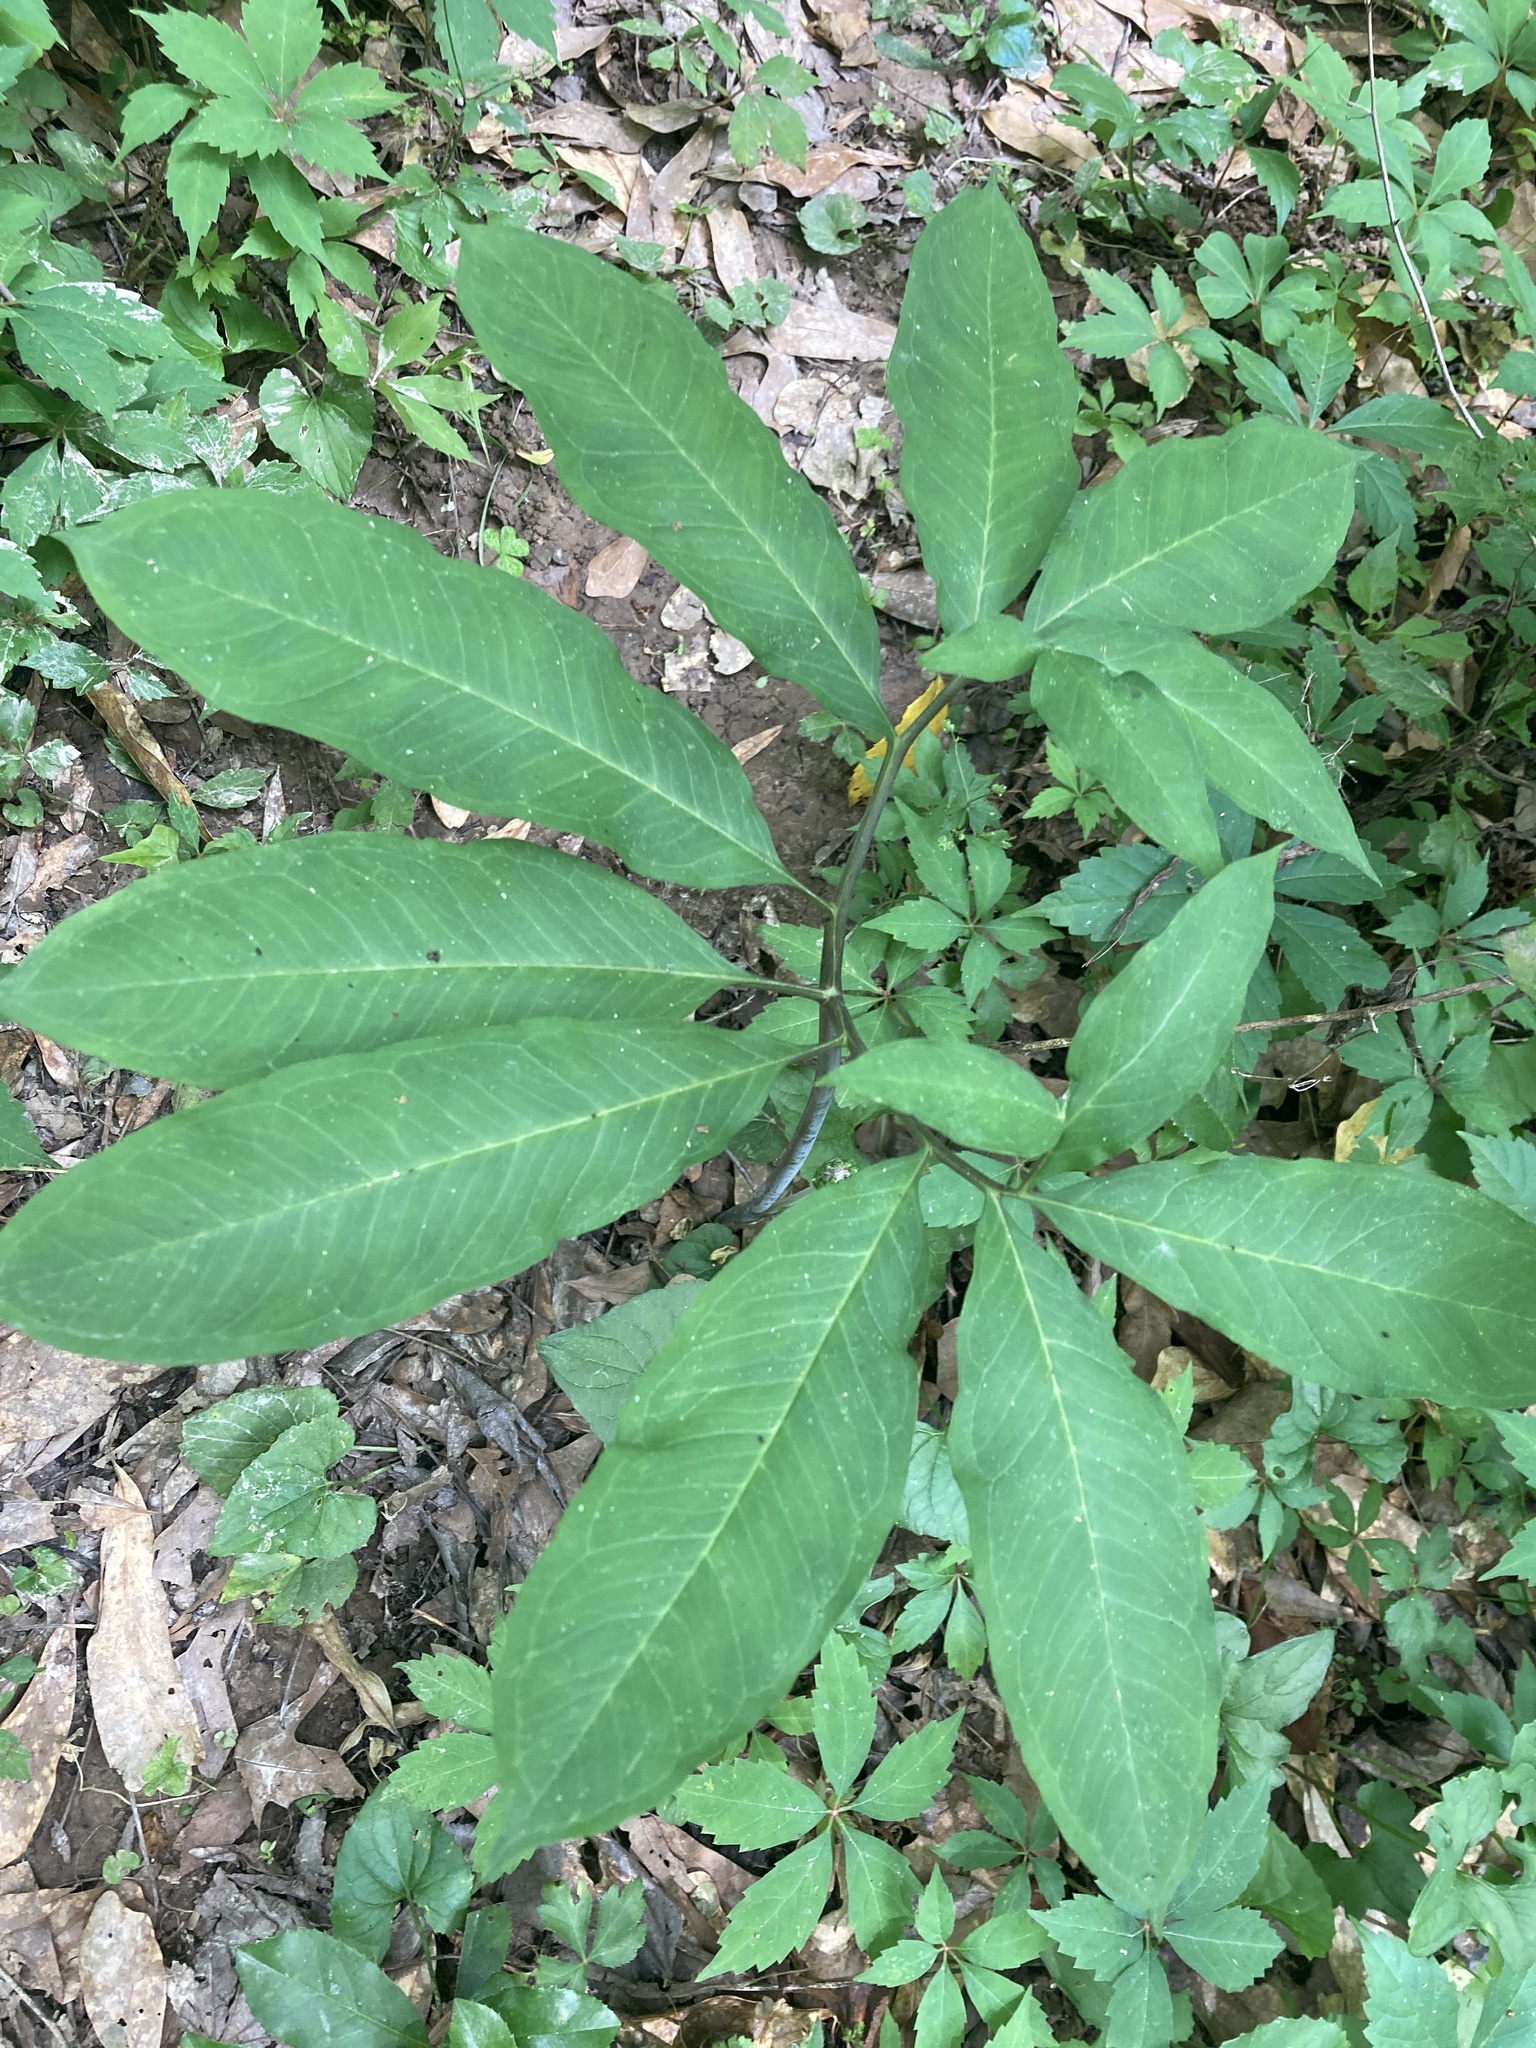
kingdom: Plantae
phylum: Tracheophyta
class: Liliopsida
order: Alismatales
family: Araceae
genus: Arisaema
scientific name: Arisaema dracontium
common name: Dragon-arum
